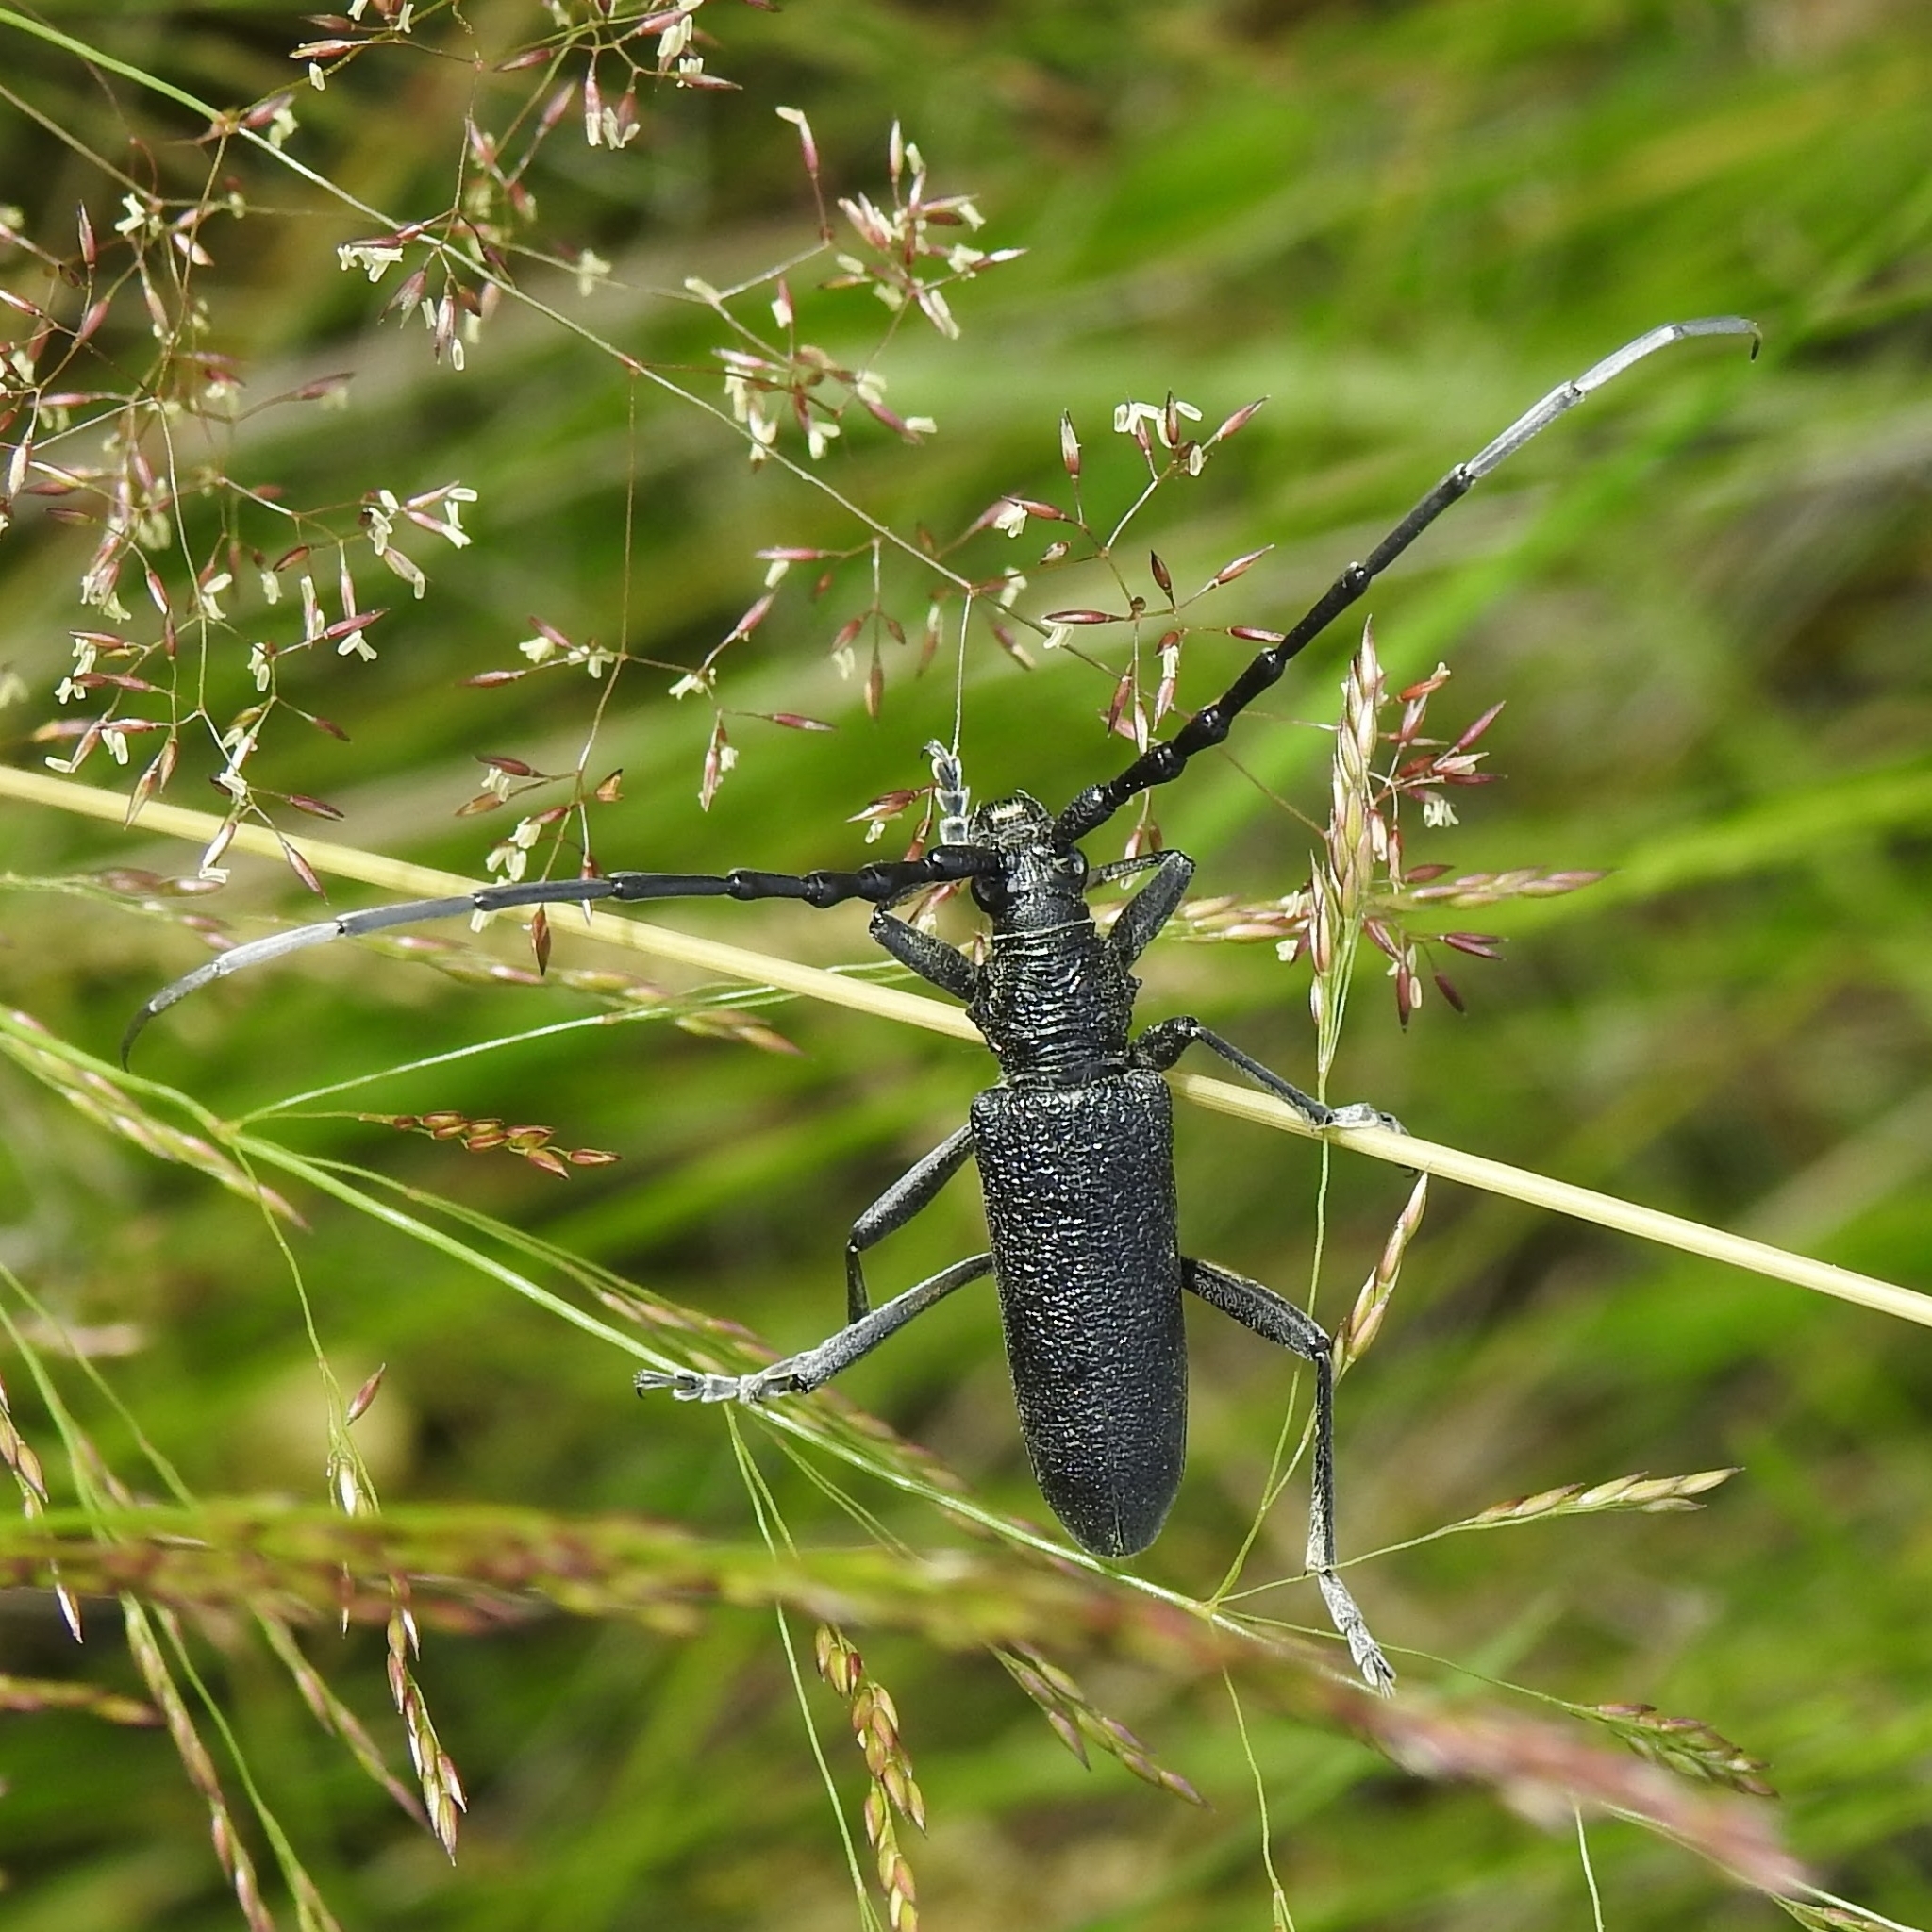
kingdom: Animalia
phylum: Arthropoda
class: Insecta
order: Coleoptera
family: Cerambycidae
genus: Cerambyx
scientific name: Cerambyx scopolii
